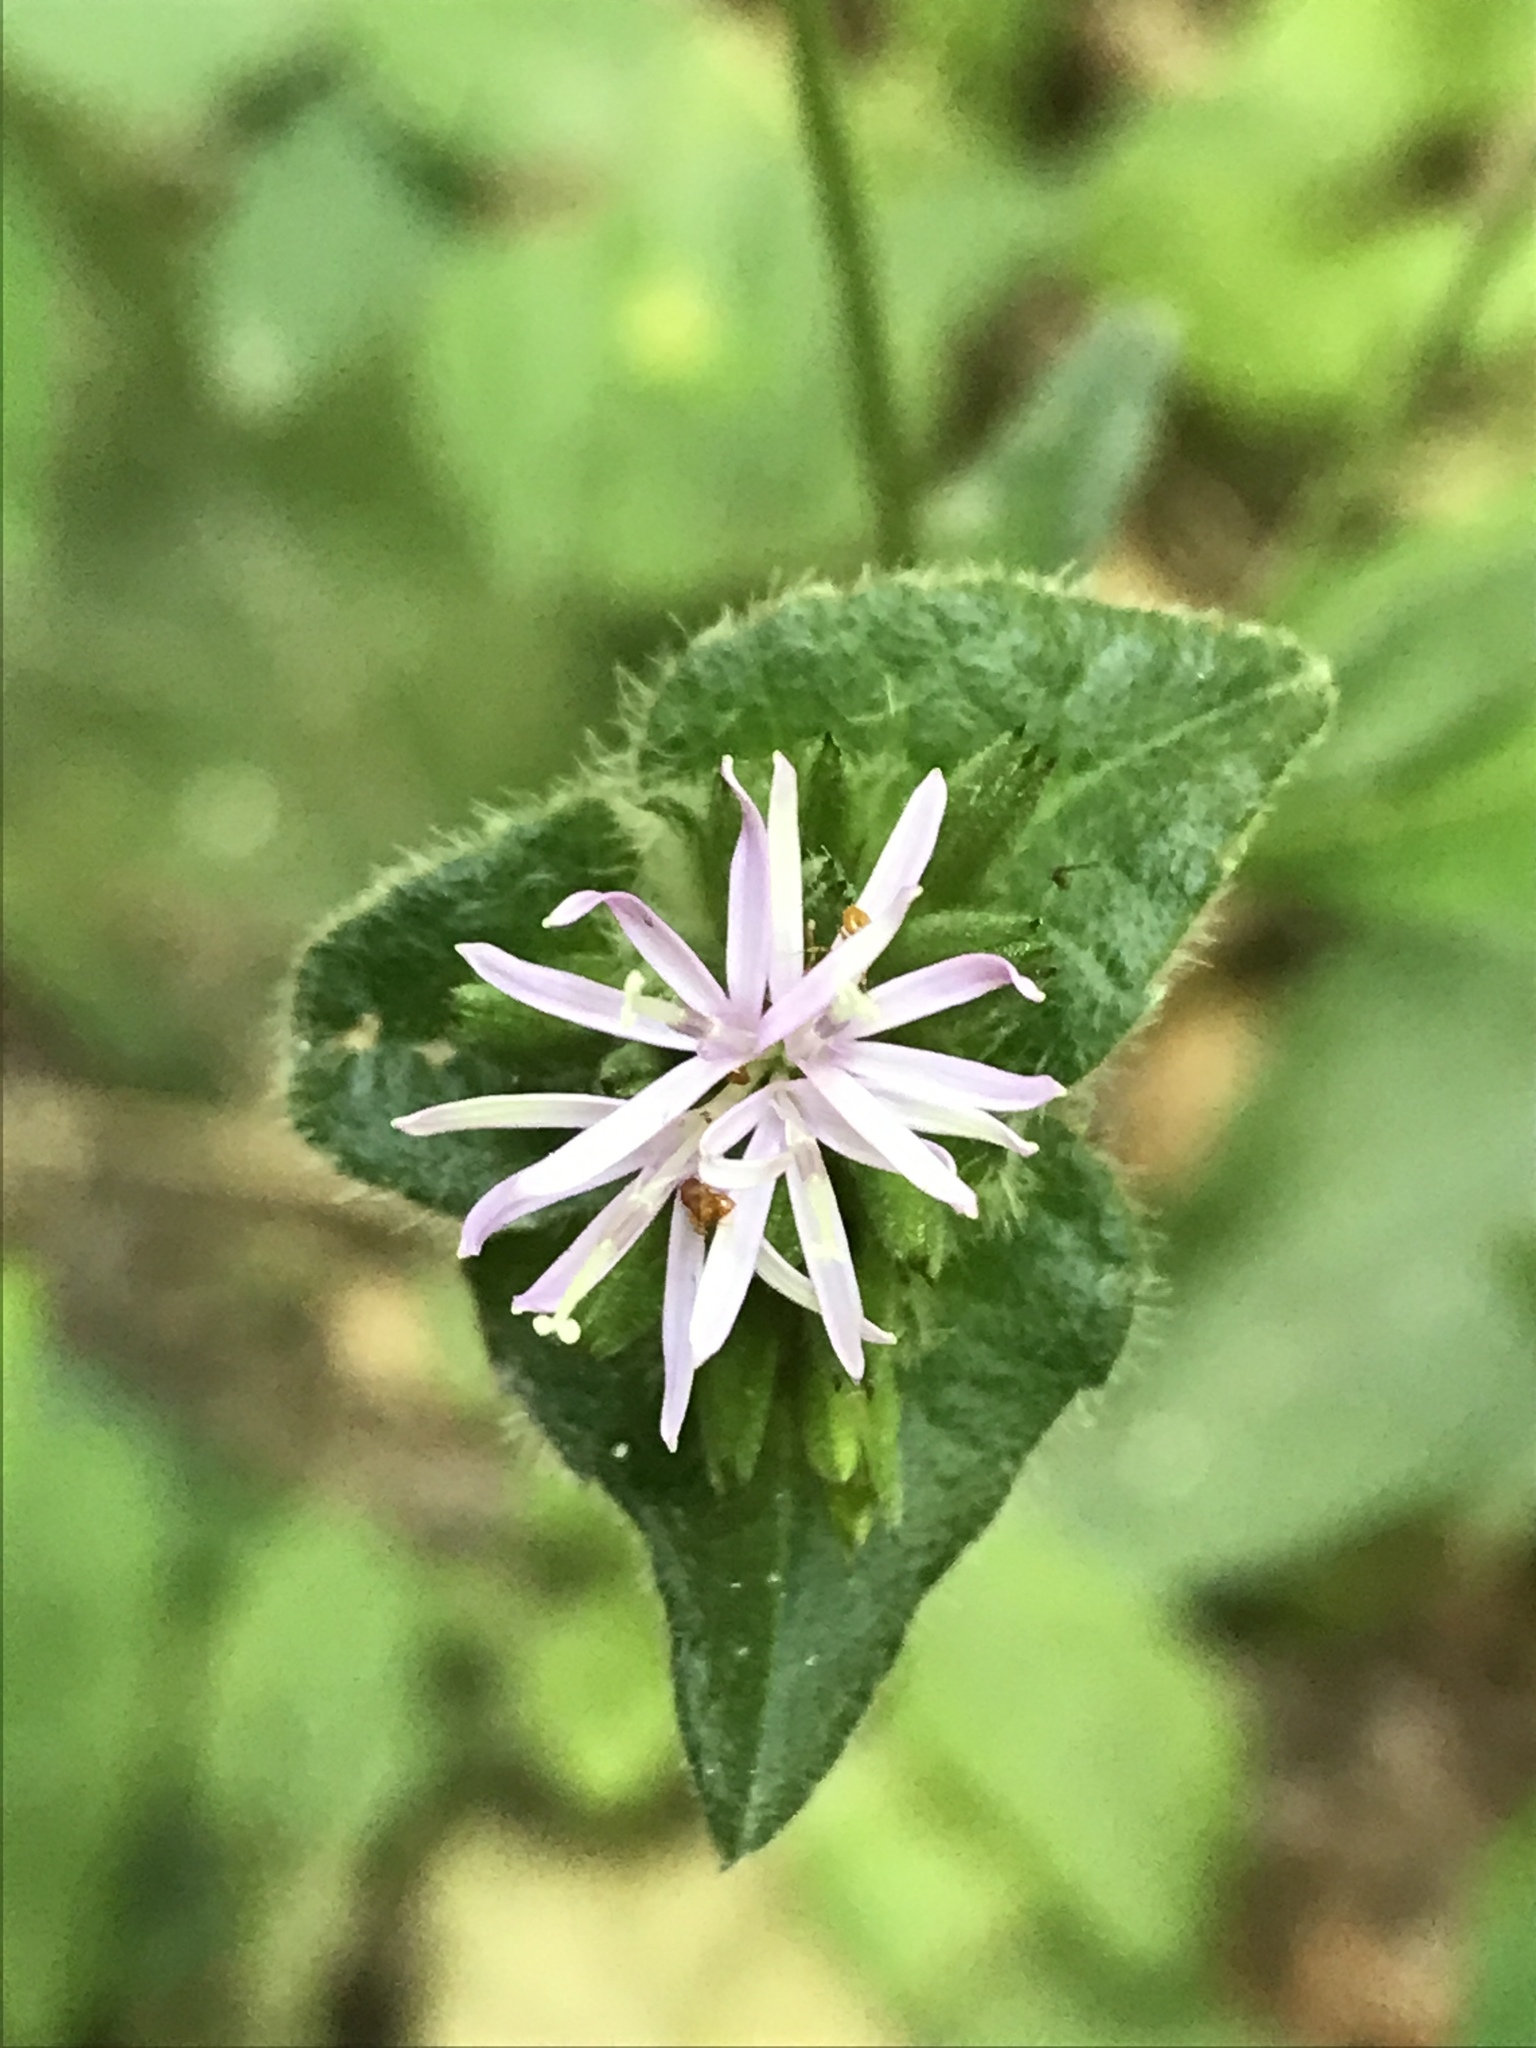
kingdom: Plantae
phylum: Tracheophyta
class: Magnoliopsida
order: Asterales
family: Asteraceae
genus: Elephantopus
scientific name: Elephantopus carolinianus
